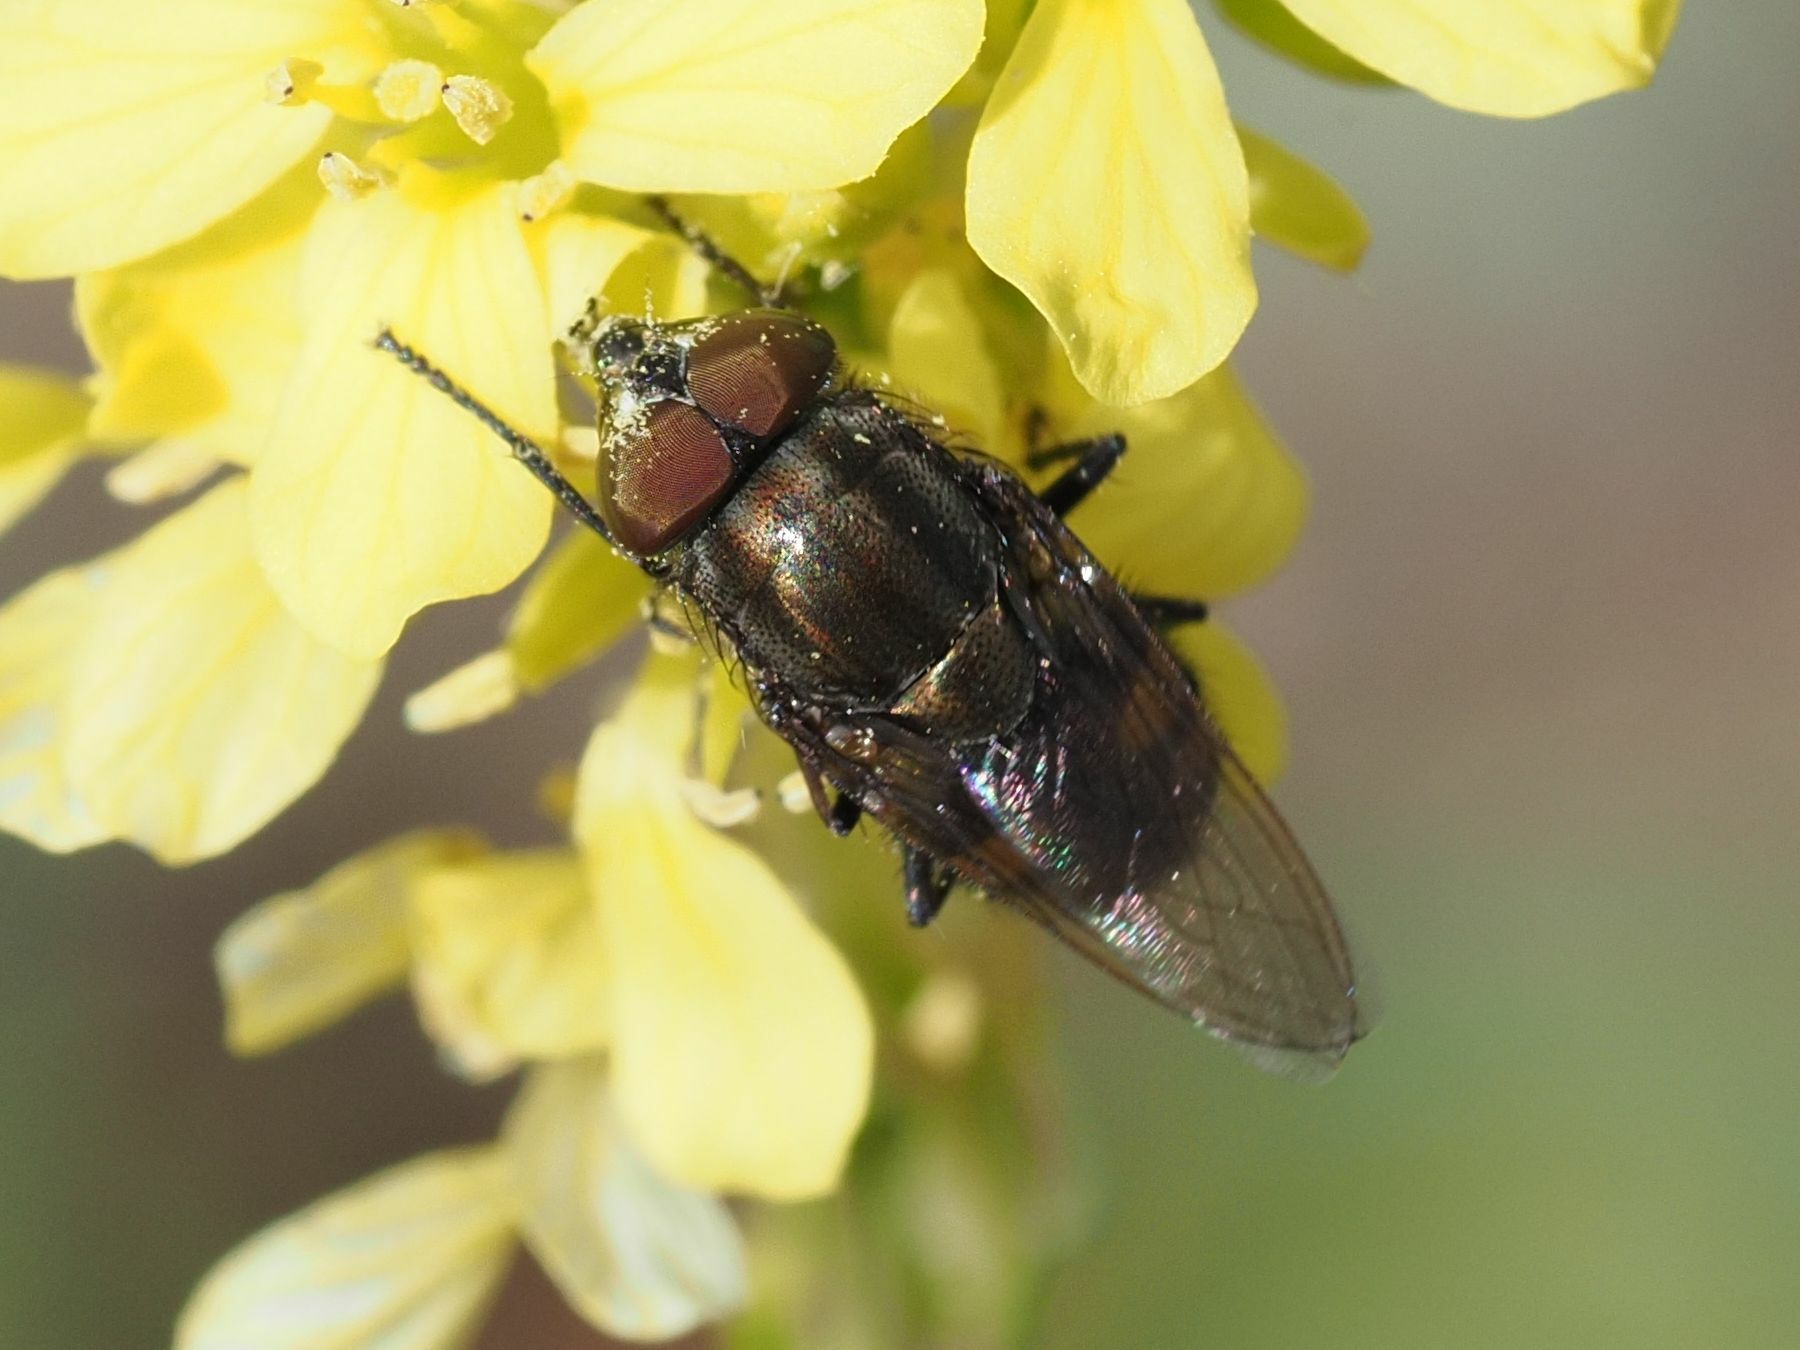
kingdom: Animalia
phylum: Arthropoda
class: Insecta
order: Diptera
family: Calliphoridae
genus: Stomorhina
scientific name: Stomorhina lunata
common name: Locust blowfly
